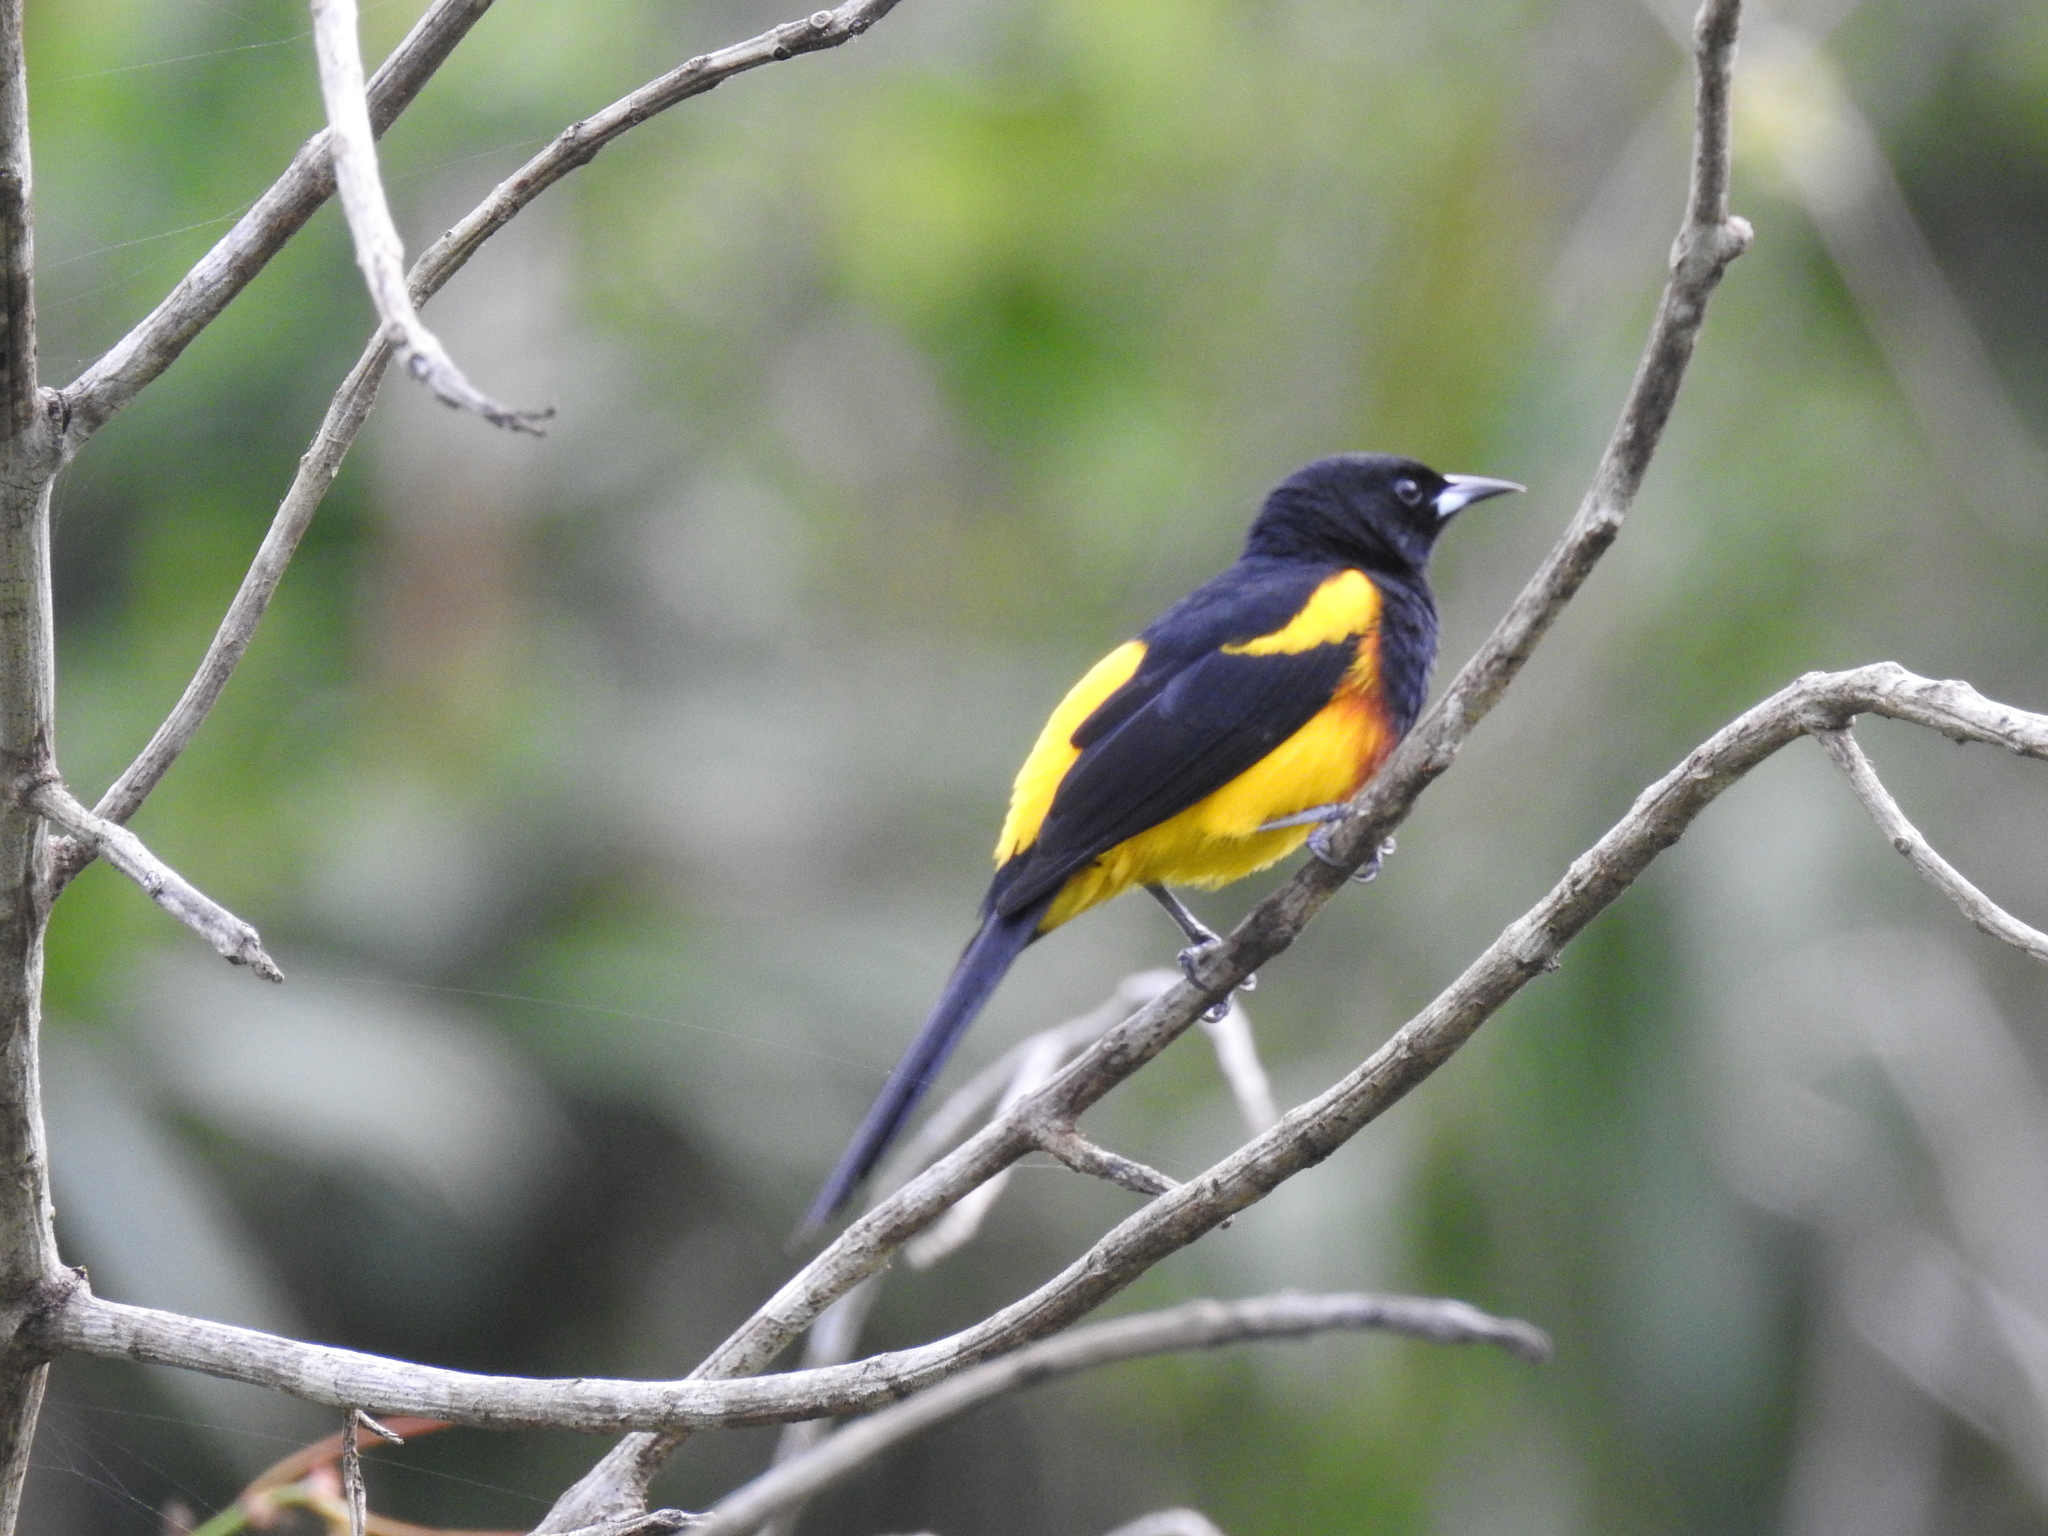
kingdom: Animalia
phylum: Chordata
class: Aves
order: Passeriformes
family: Icteridae
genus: Icterus
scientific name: Icterus prosthemelas
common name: Black-cowled oriole
